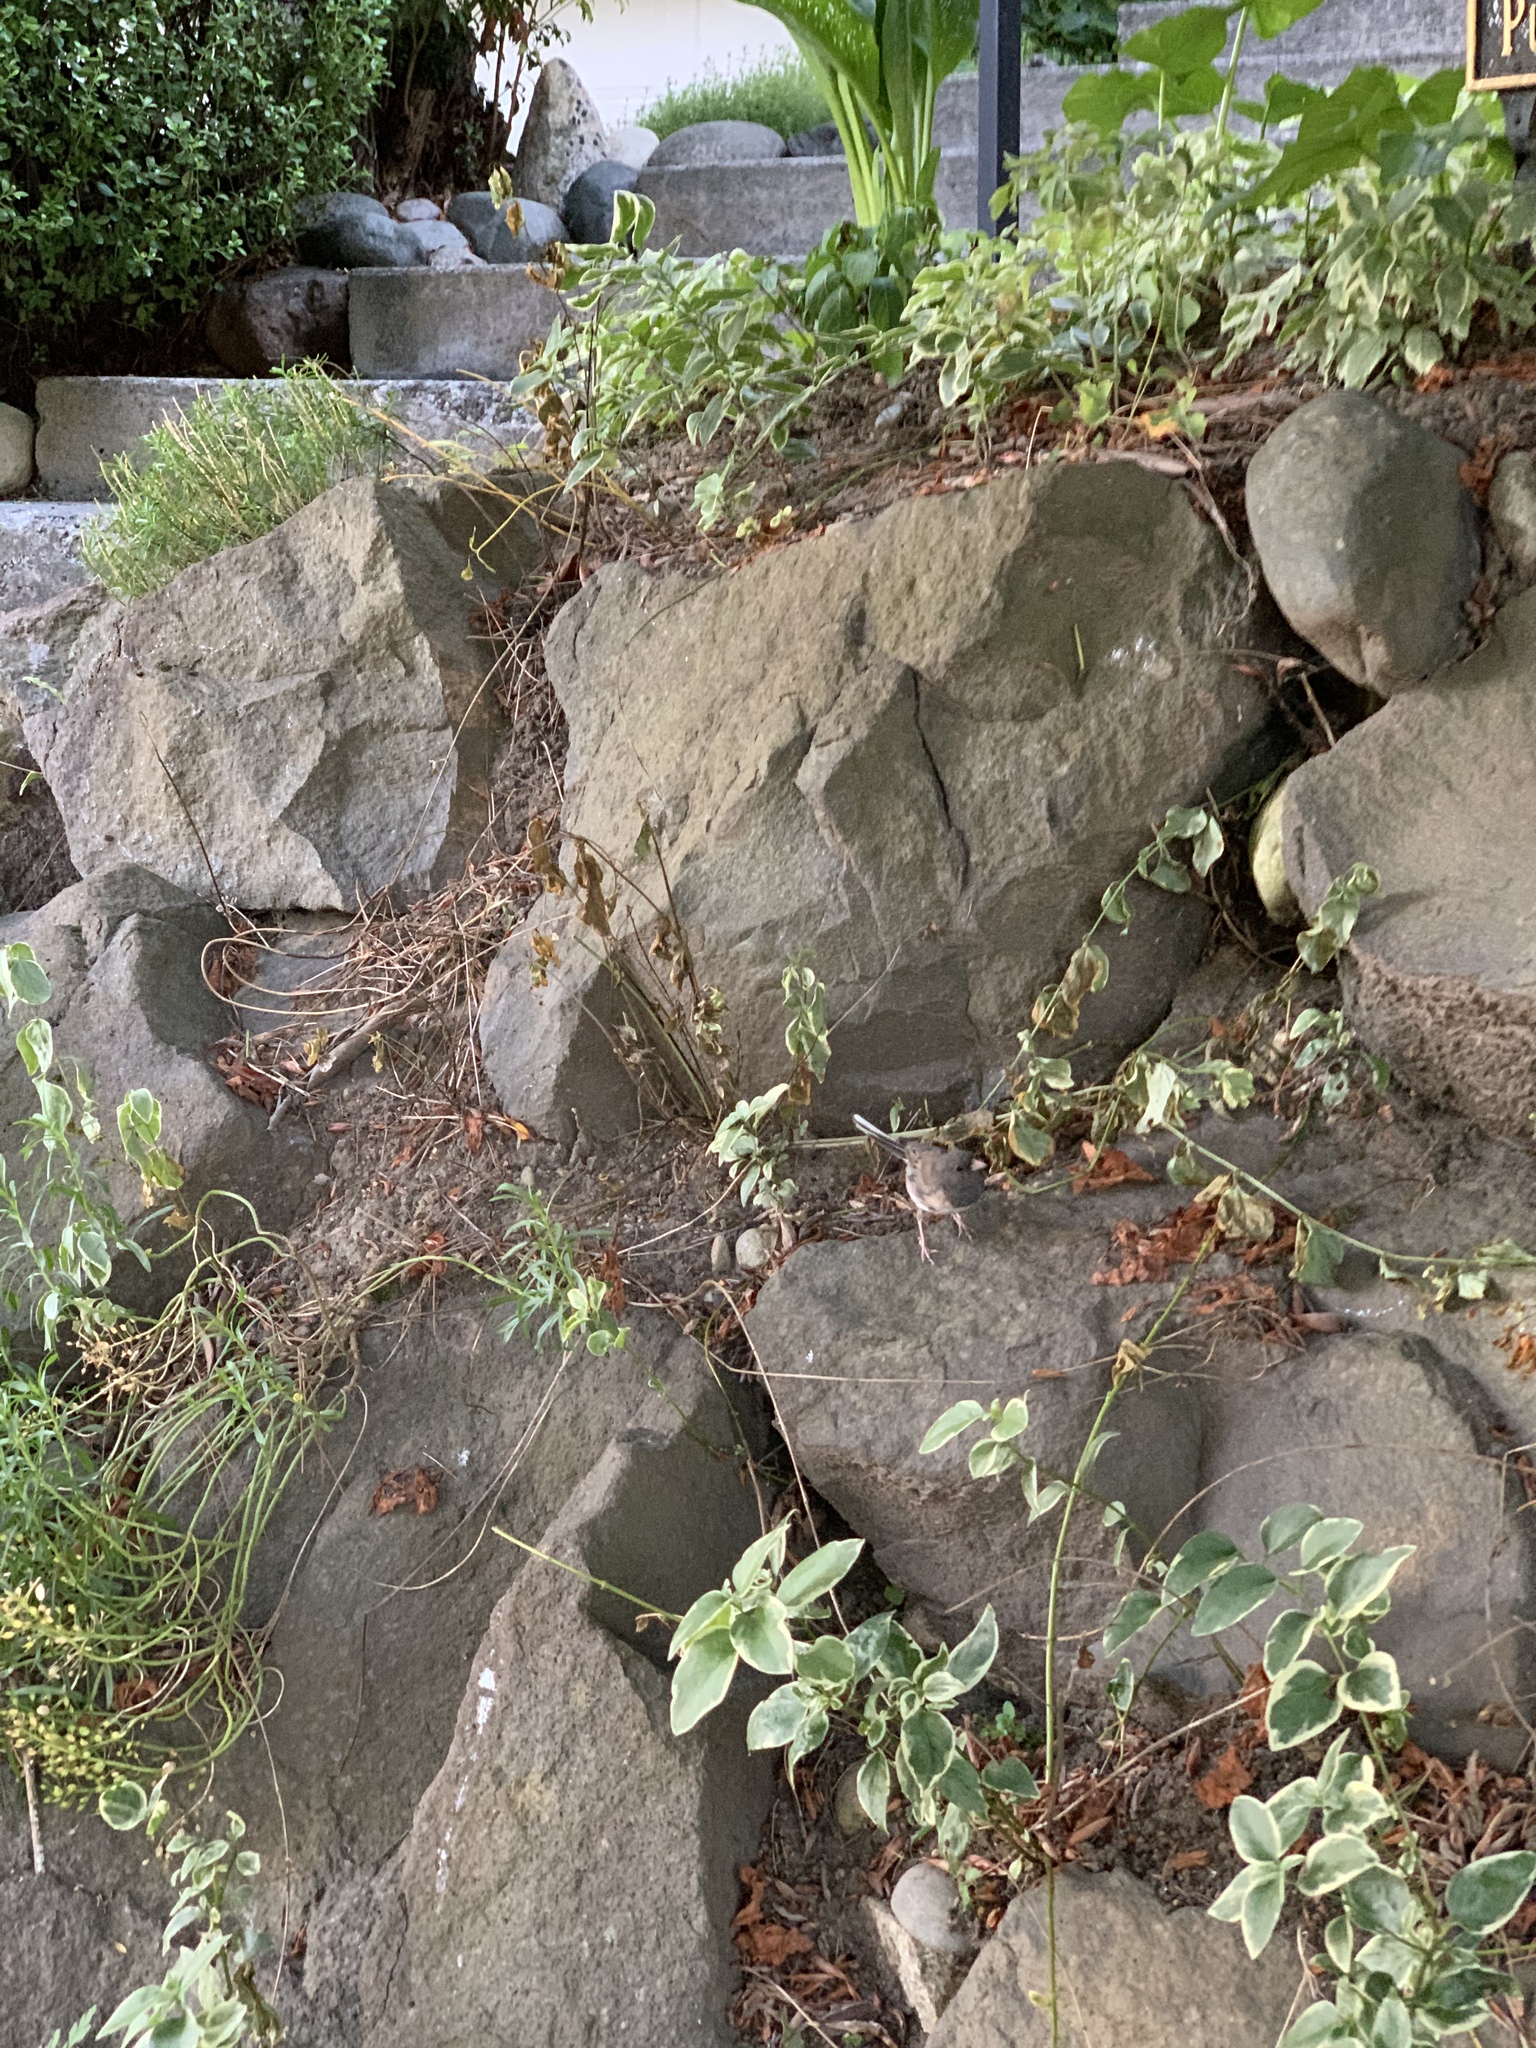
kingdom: Animalia
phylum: Chordata
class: Aves
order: Passeriformes
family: Passerellidae
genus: Junco
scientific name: Junco hyemalis
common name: Dark-eyed junco
